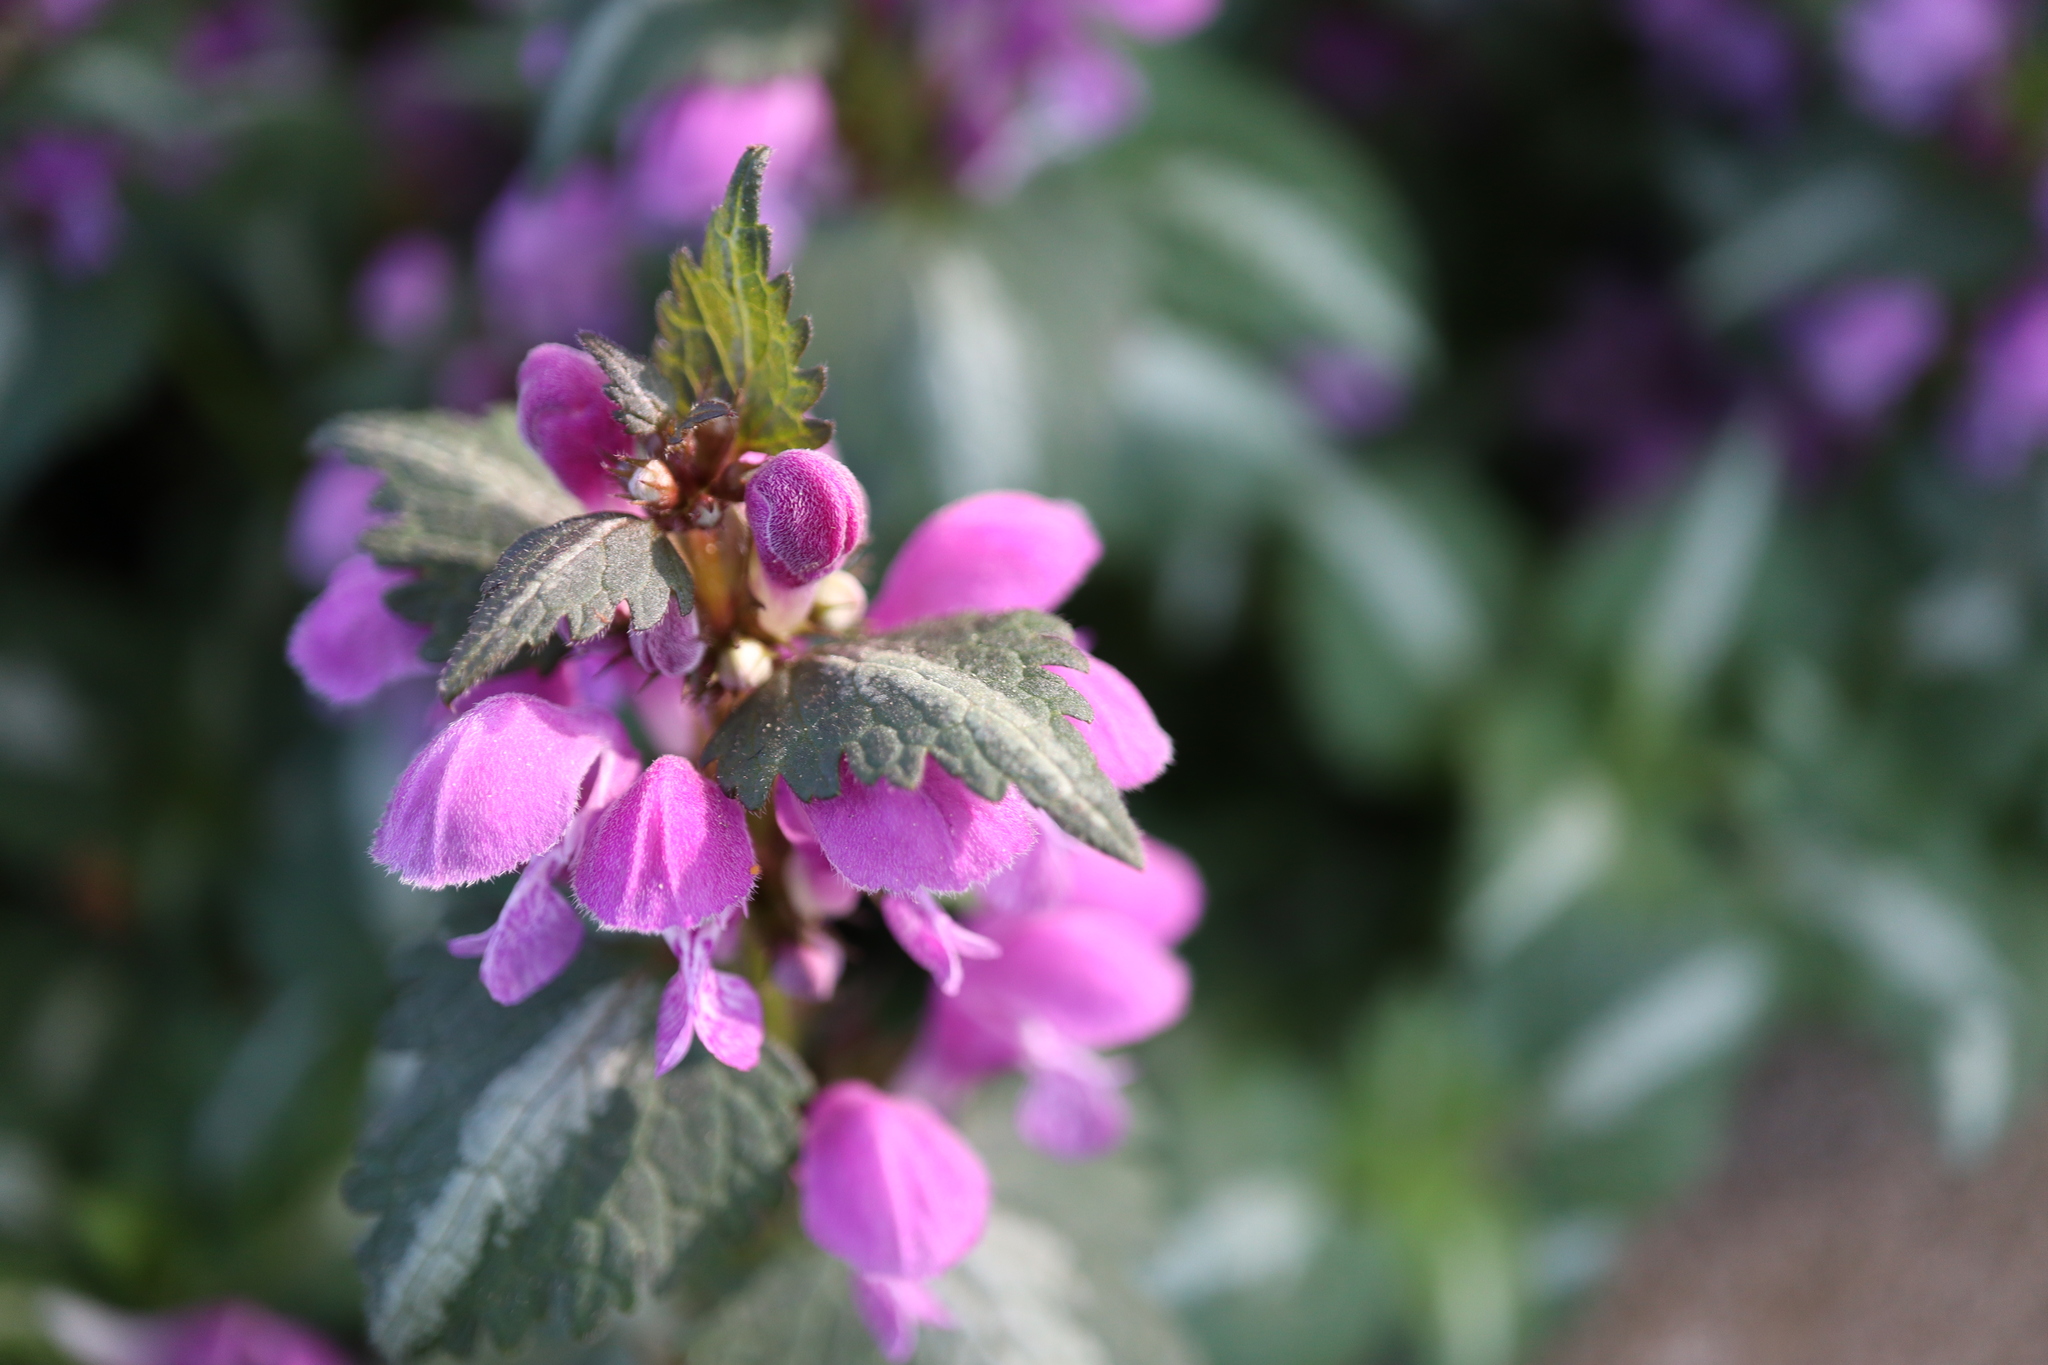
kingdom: Plantae
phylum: Tracheophyta
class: Magnoliopsida
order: Lamiales
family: Lamiaceae
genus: Lamium
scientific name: Lamium maculatum
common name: Spotted dead-nettle
